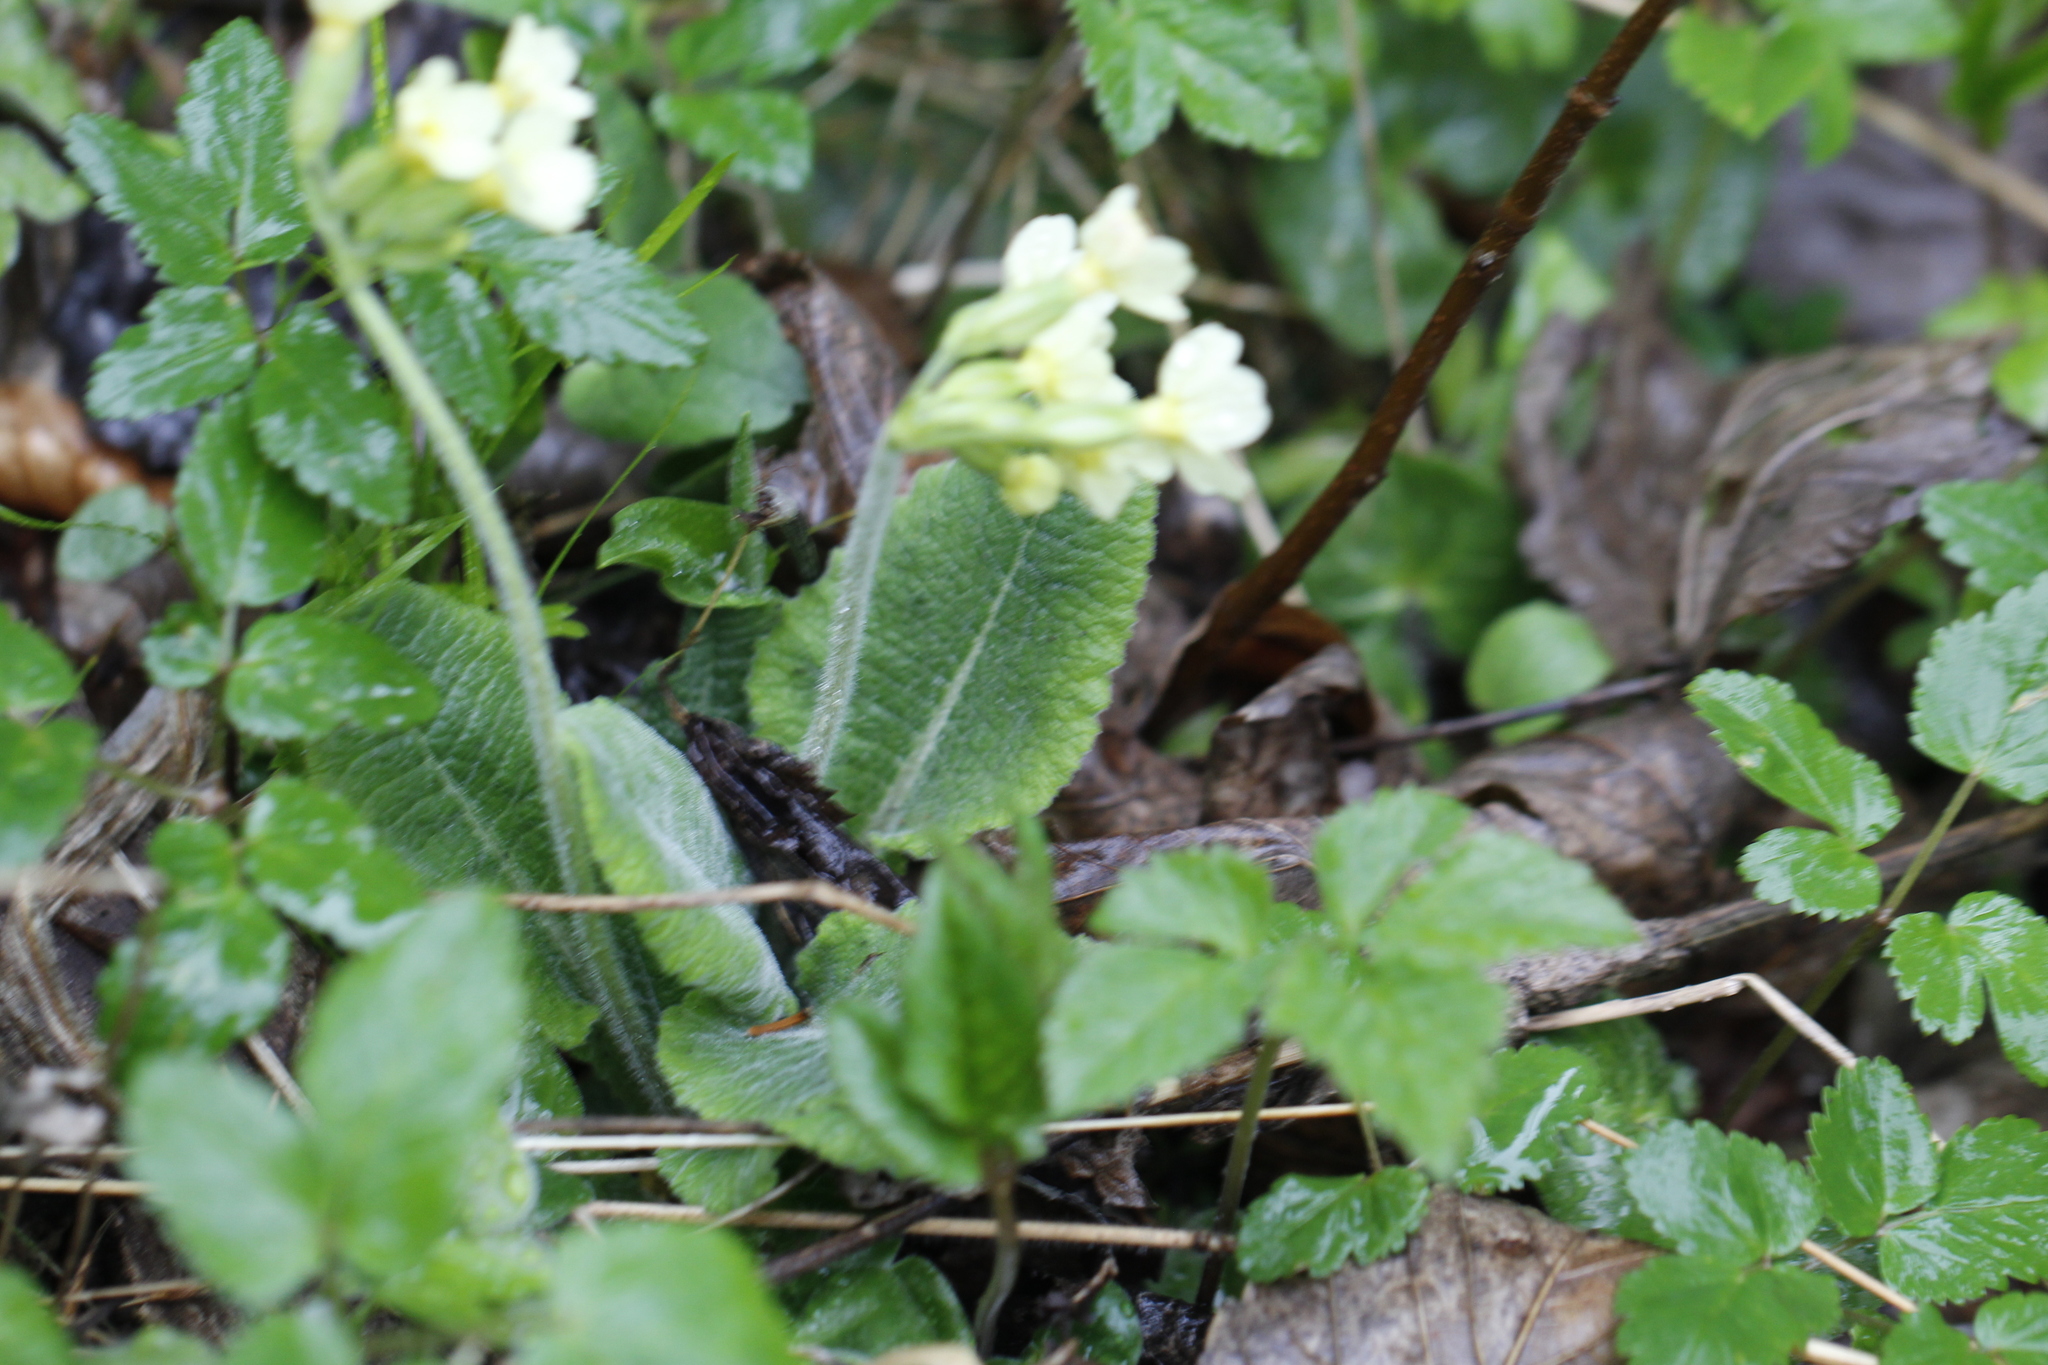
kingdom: Plantae
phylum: Tracheophyta
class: Magnoliopsida
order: Ericales
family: Primulaceae
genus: Primula
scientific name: Primula elatior
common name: Oxlip
